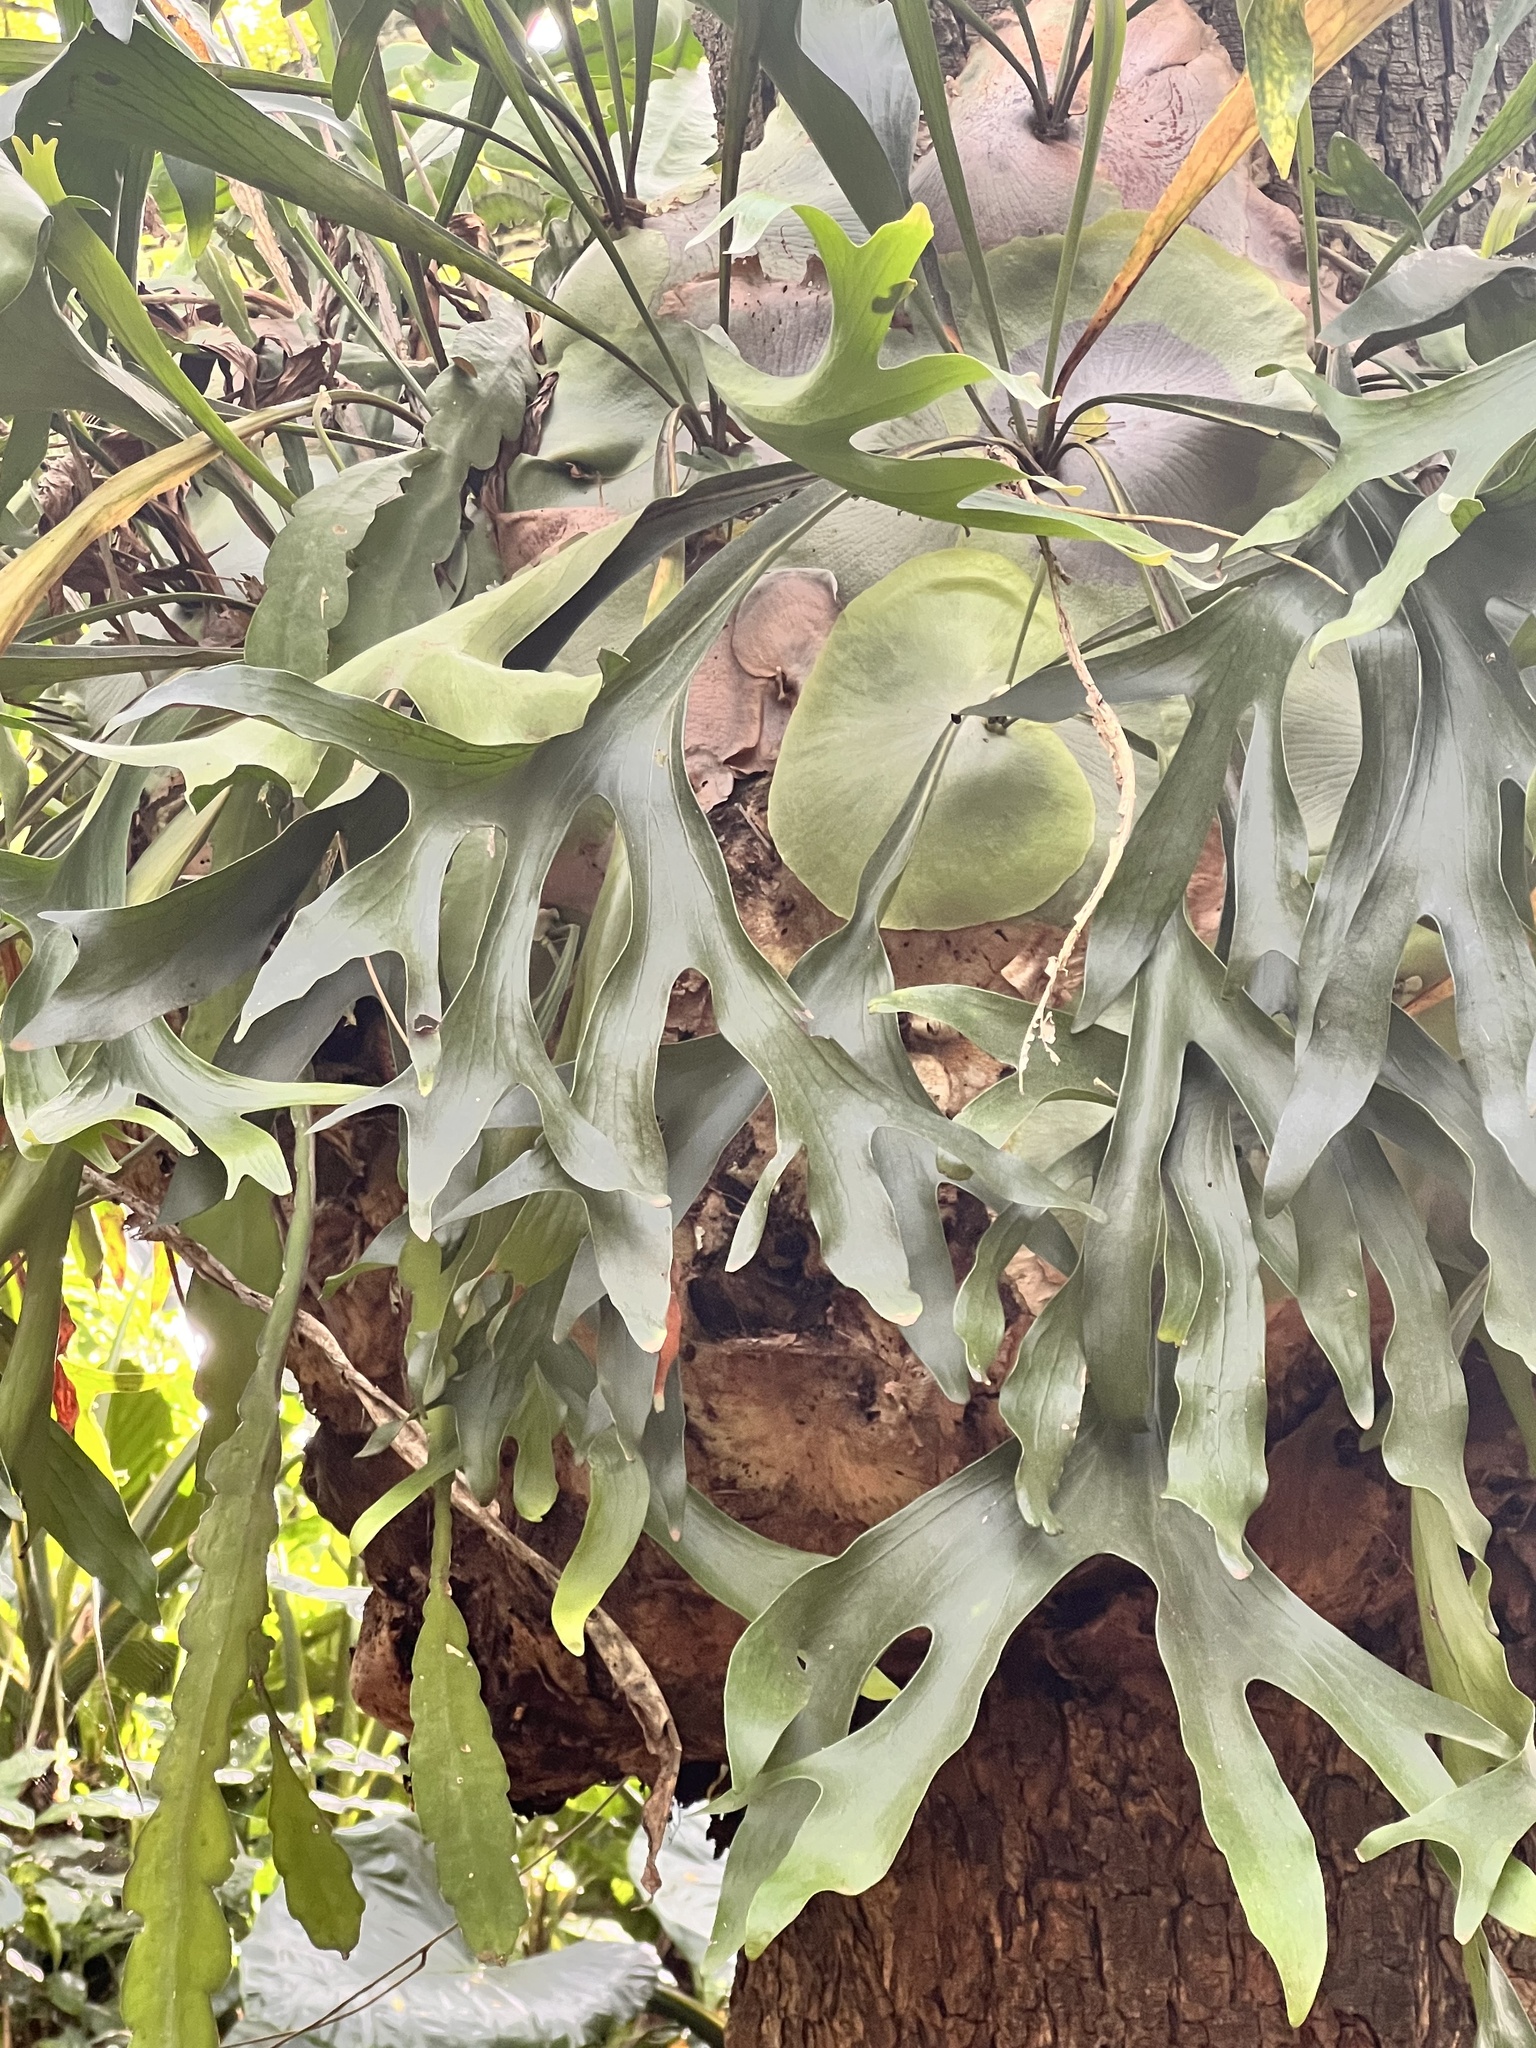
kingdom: Plantae
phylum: Tracheophyta
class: Polypodiopsida
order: Polypodiales
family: Polypodiaceae
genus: Platycerium
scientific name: Platycerium bifurcatum
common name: Elkhorn fern
